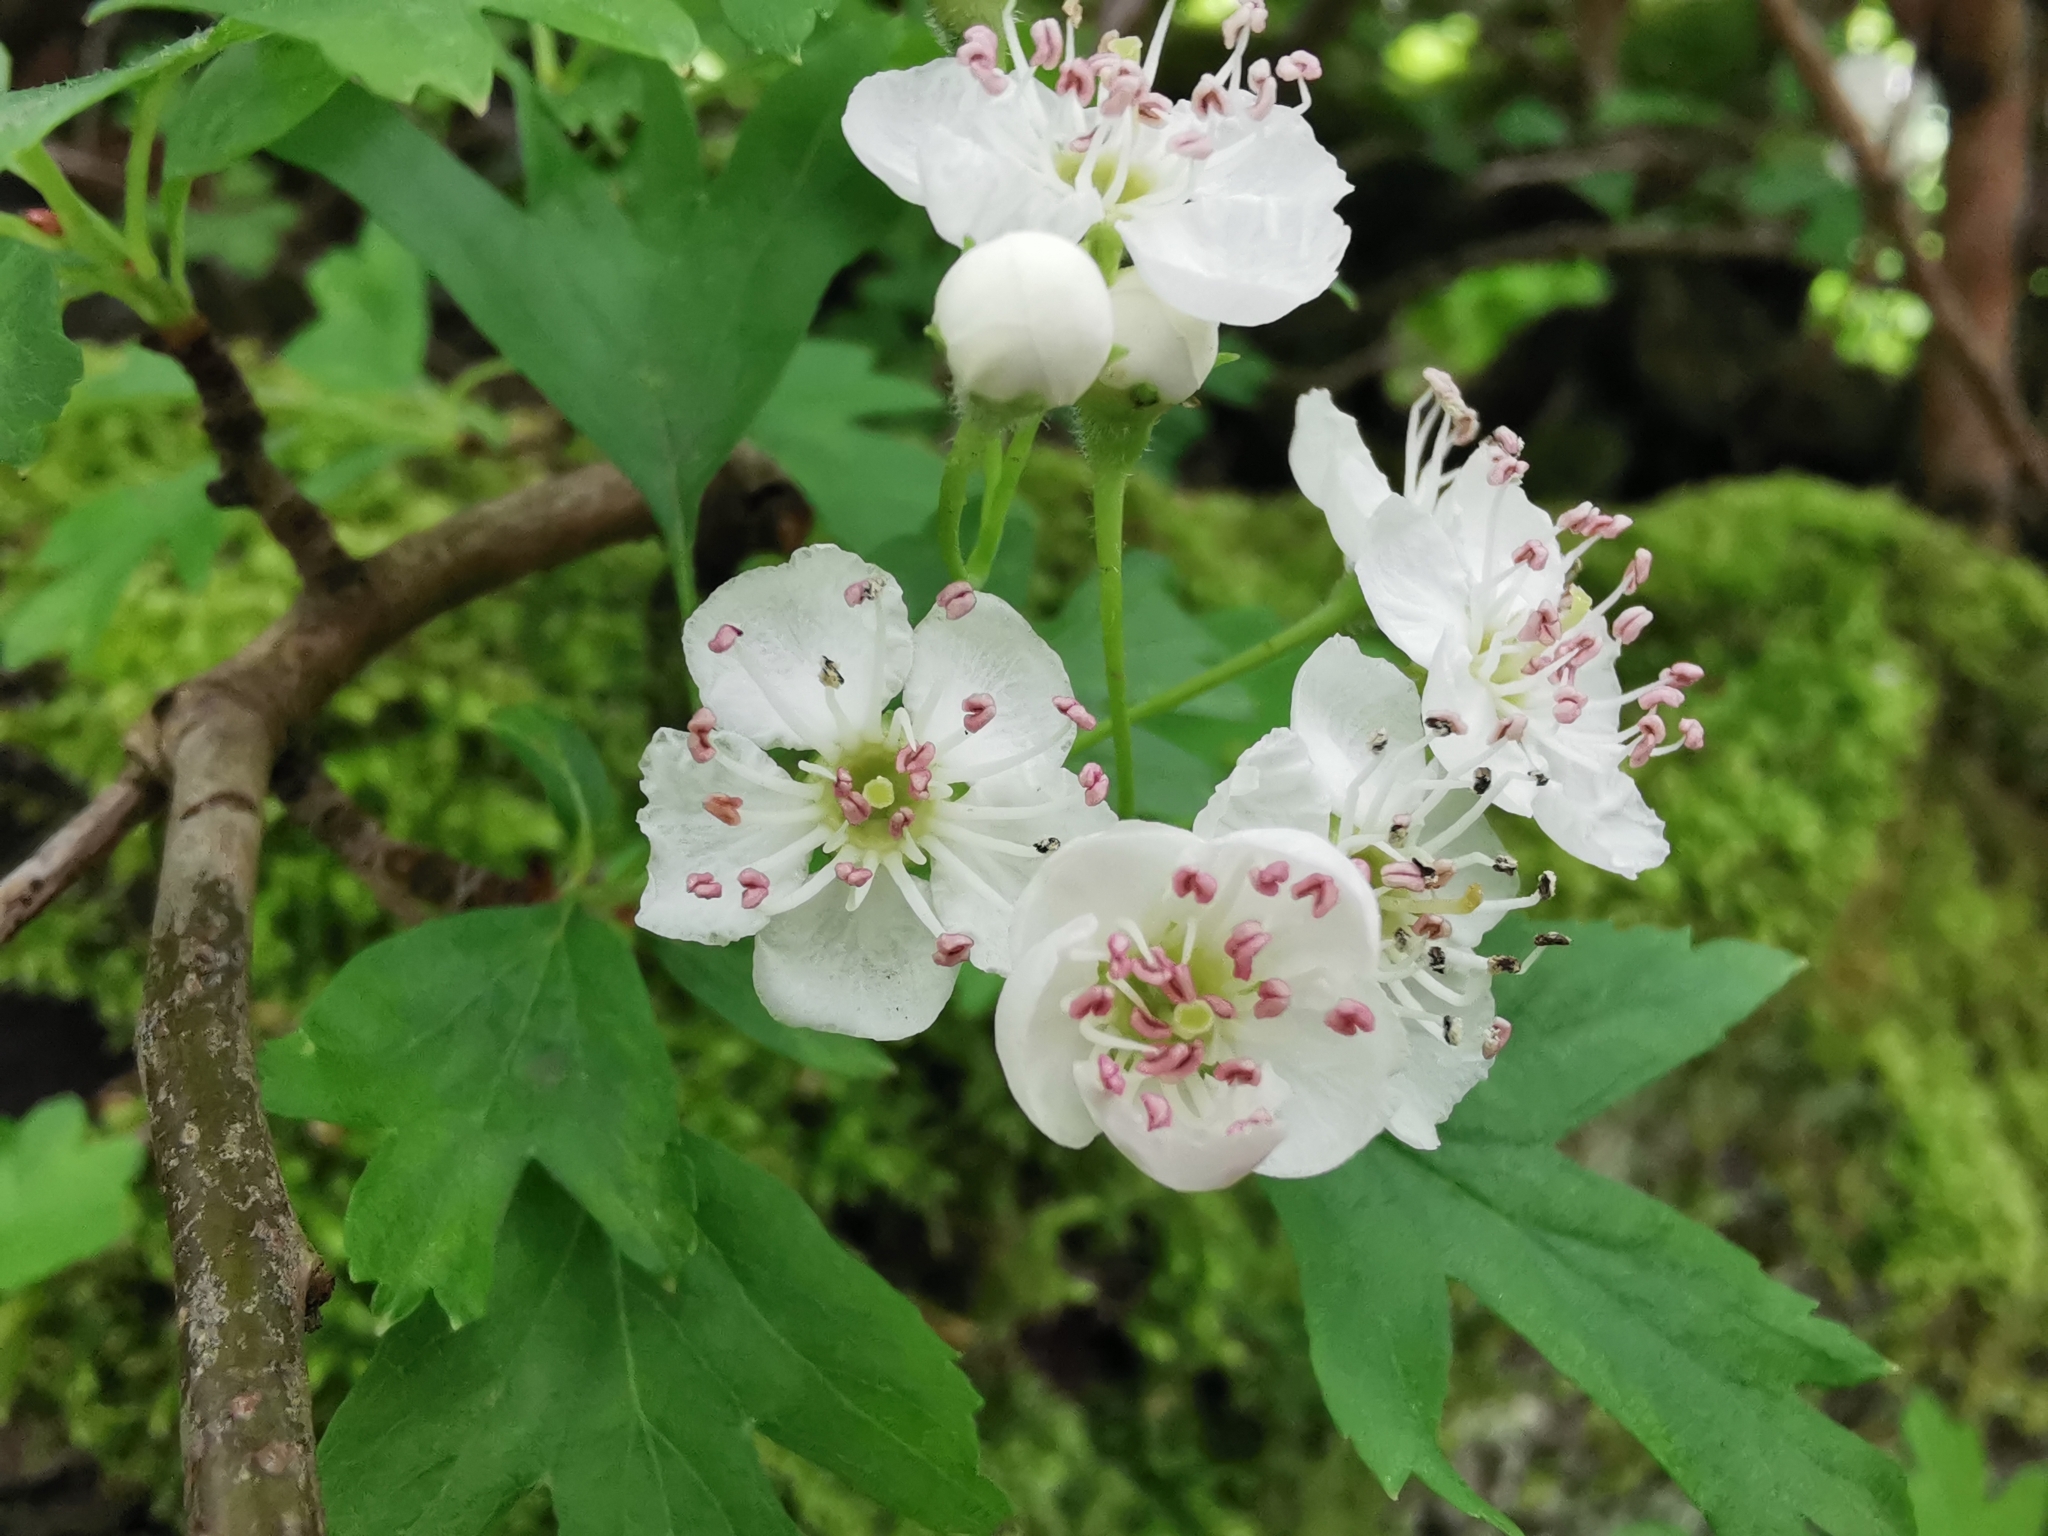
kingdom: Plantae
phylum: Tracheophyta
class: Magnoliopsida
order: Rosales
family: Rosaceae
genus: Crataegus
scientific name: Crataegus monogyna
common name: Hawthorn
